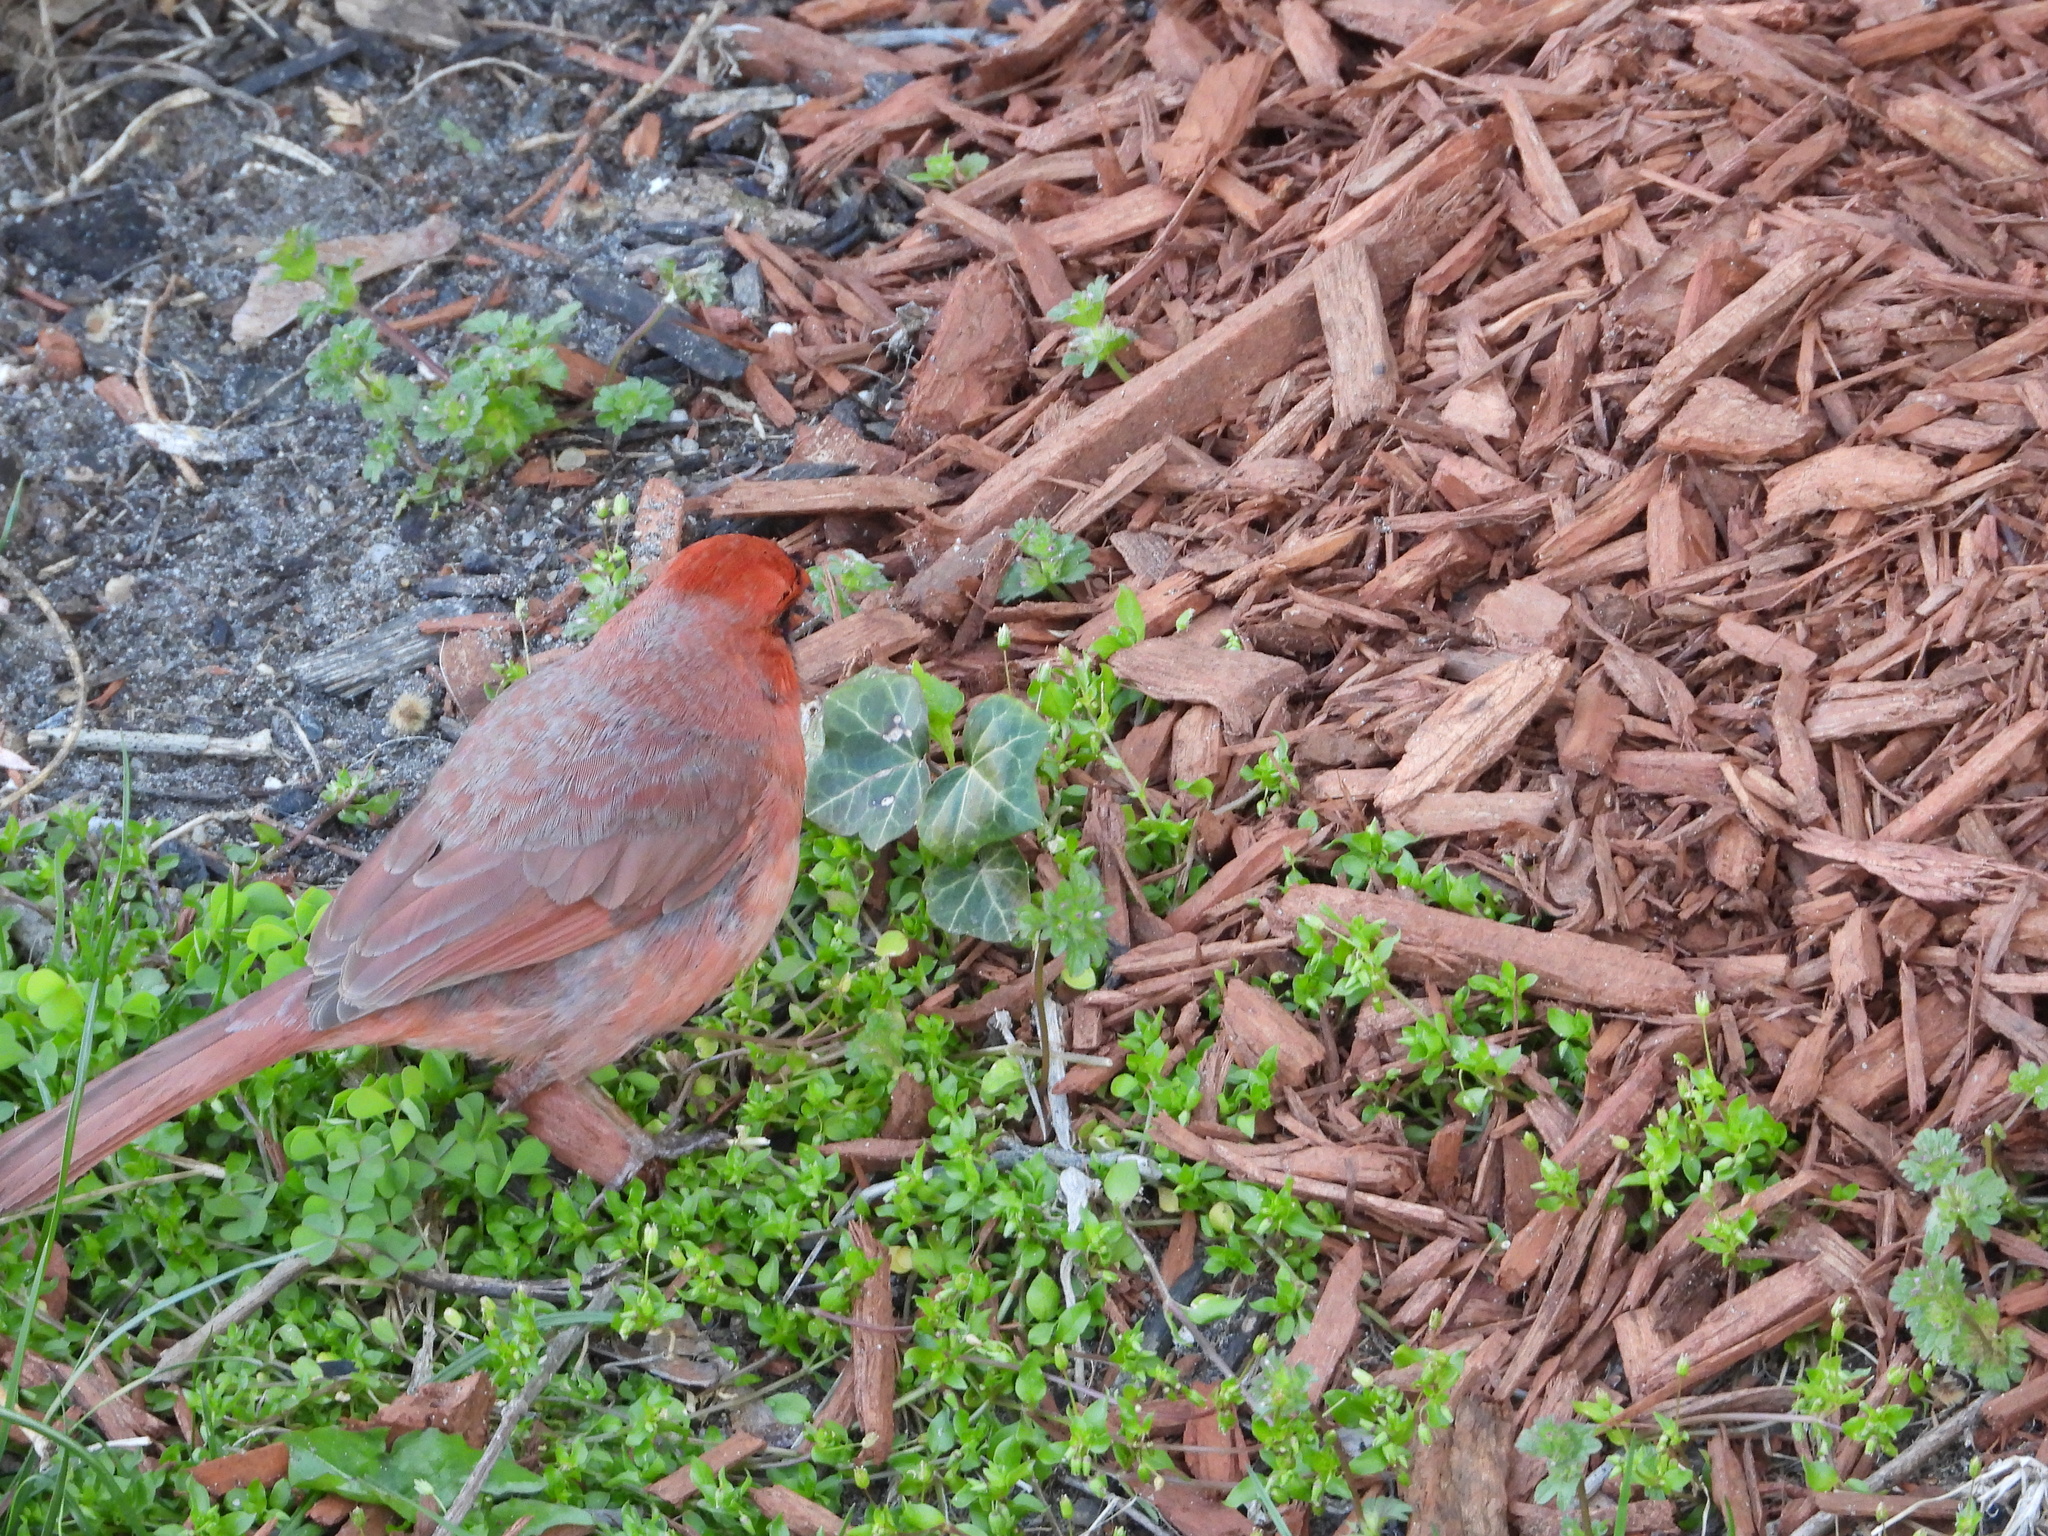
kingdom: Animalia
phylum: Chordata
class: Aves
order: Passeriformes
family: Cardinalidae
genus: Cardinalis
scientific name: Cardinalis cardinalis
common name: Northern cardinal
